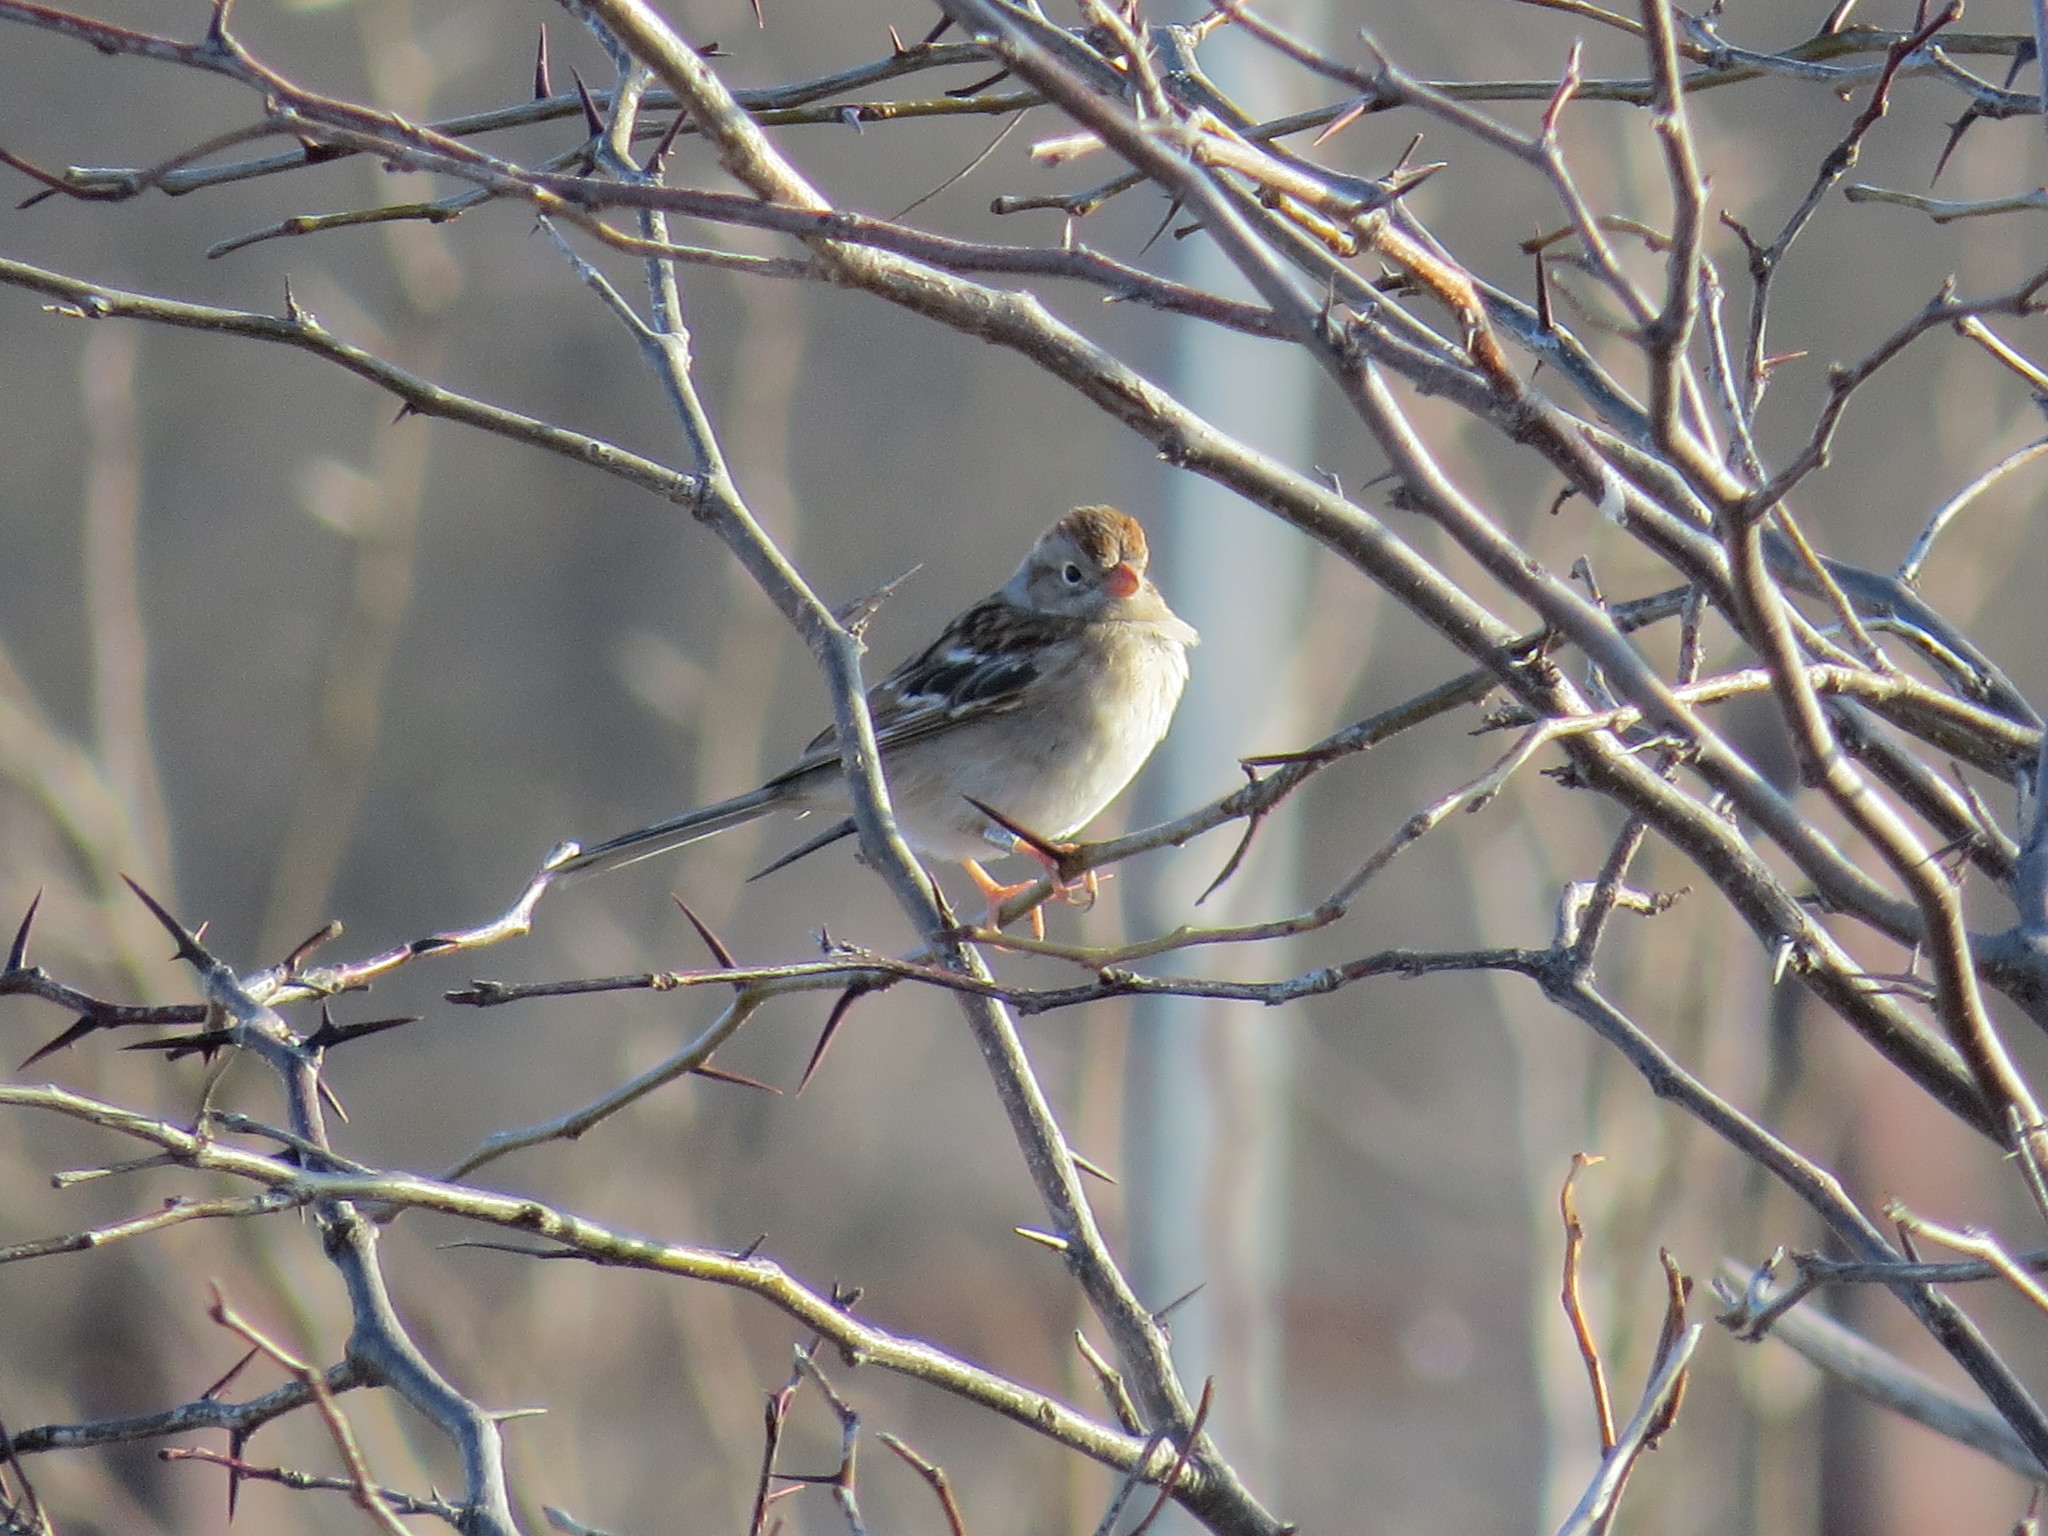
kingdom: Animalia
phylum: Chordata
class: Aves
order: Passeriformes
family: Passerellidae
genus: Spizella
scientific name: Spizella pusilla
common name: Field sparrow
